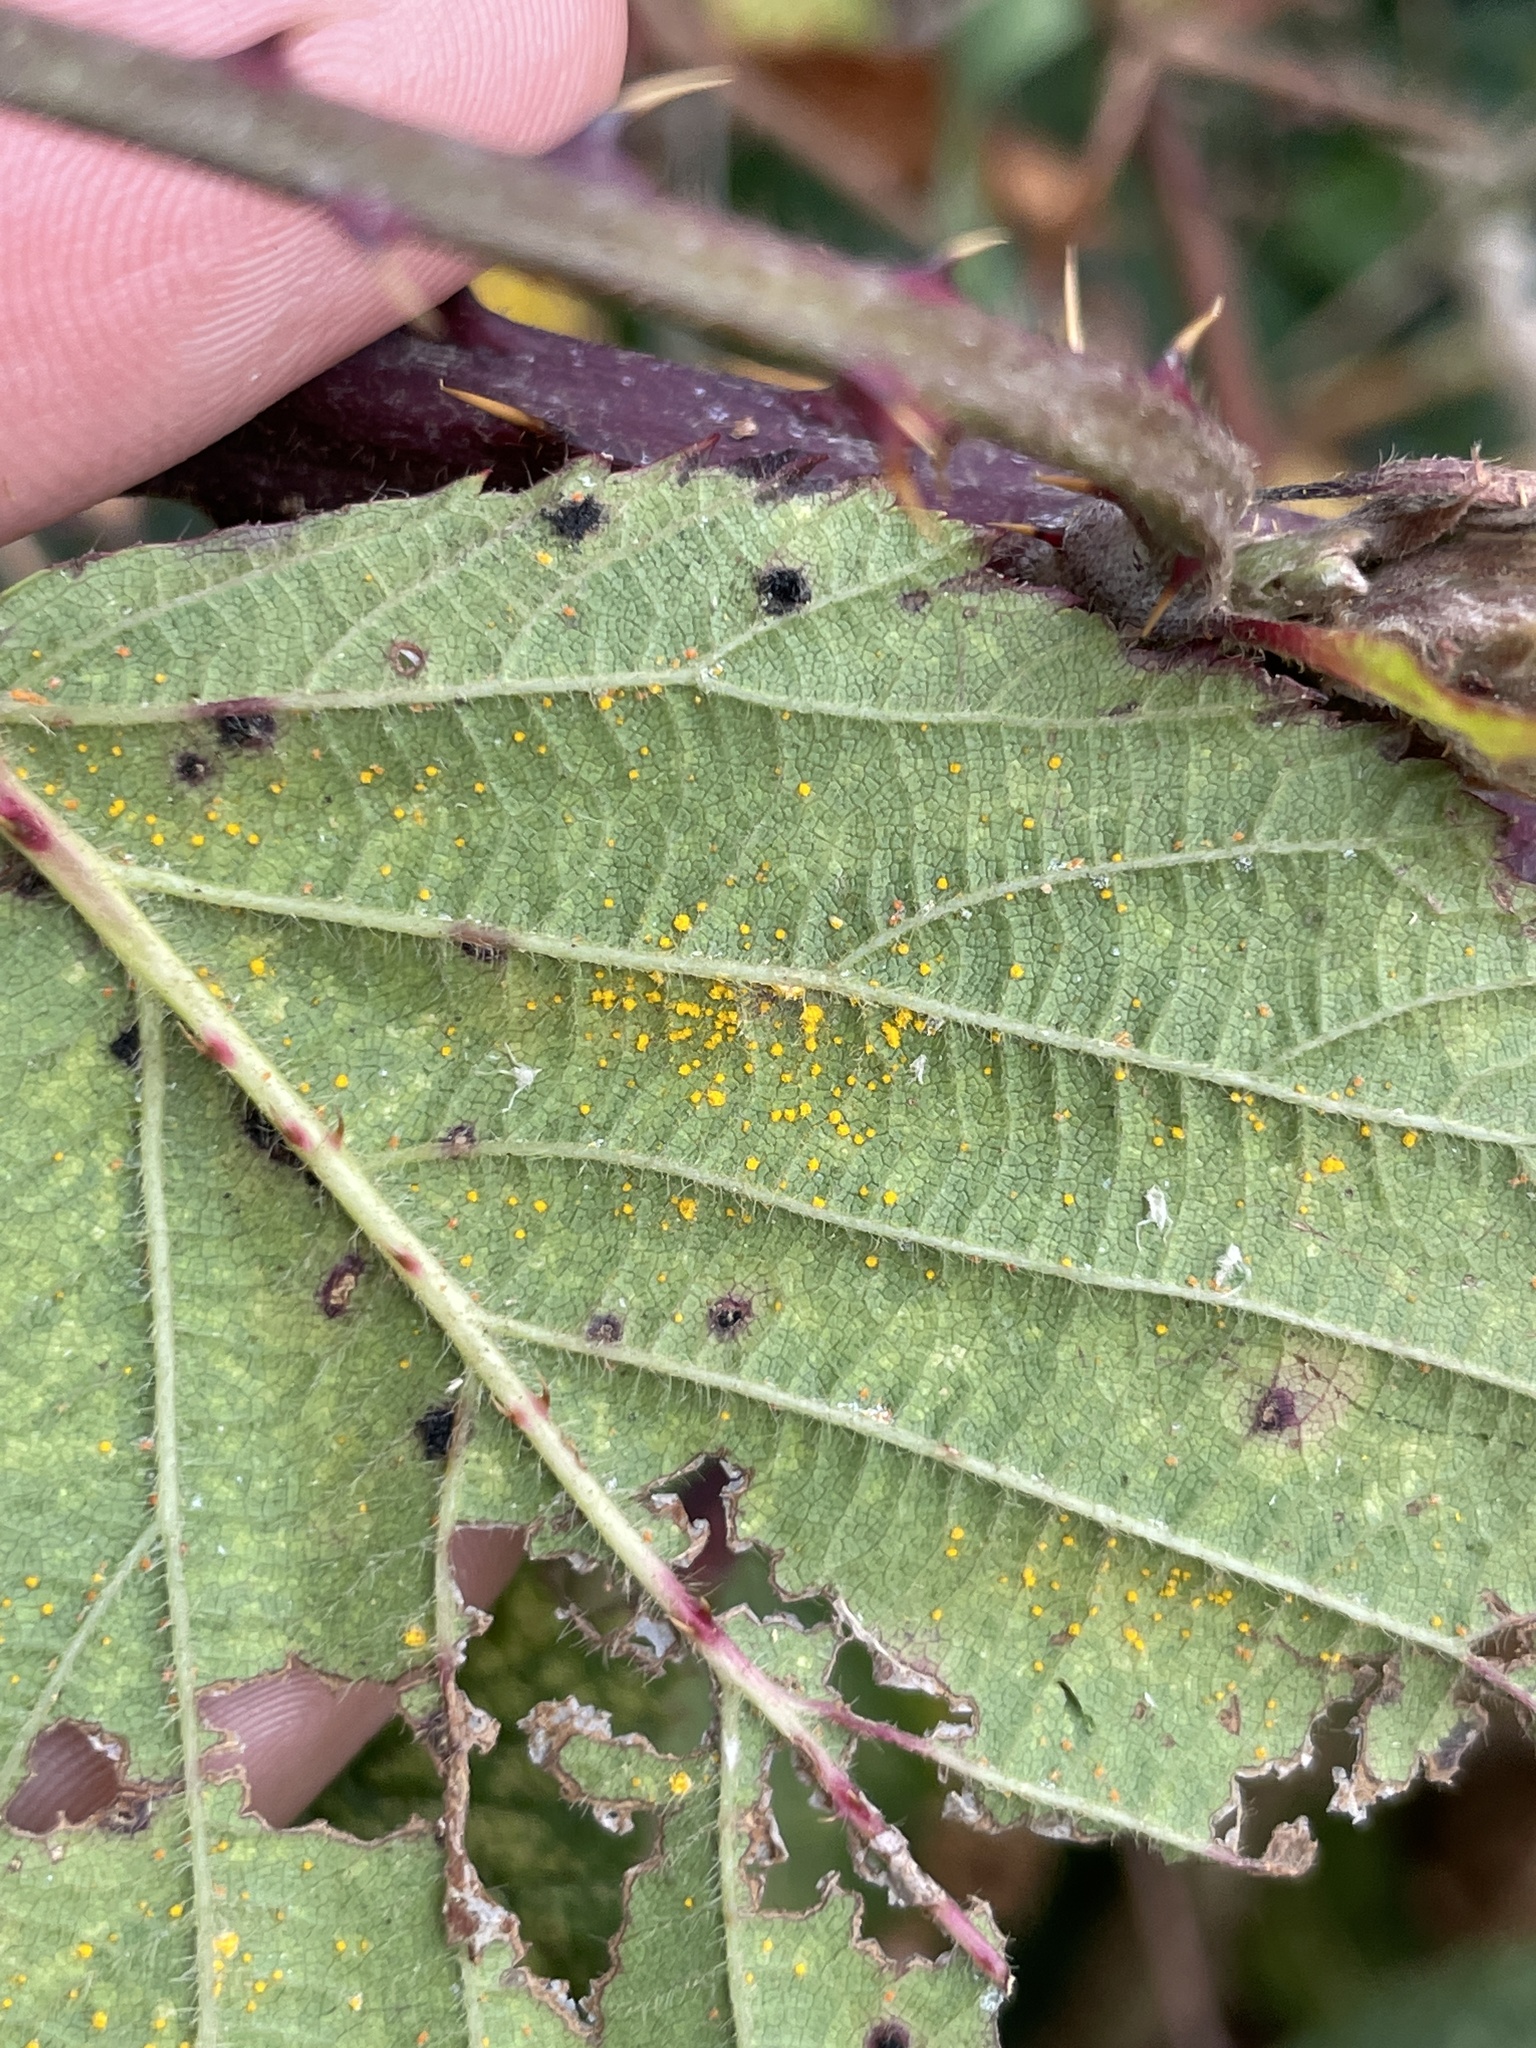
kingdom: Fungi
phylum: Basidiomycota
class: Pucciniomycetes
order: Pucciniales
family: Phragmidiaceae
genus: Phragmidium
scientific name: Phragmidium violaceum
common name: Violet bramble rust
